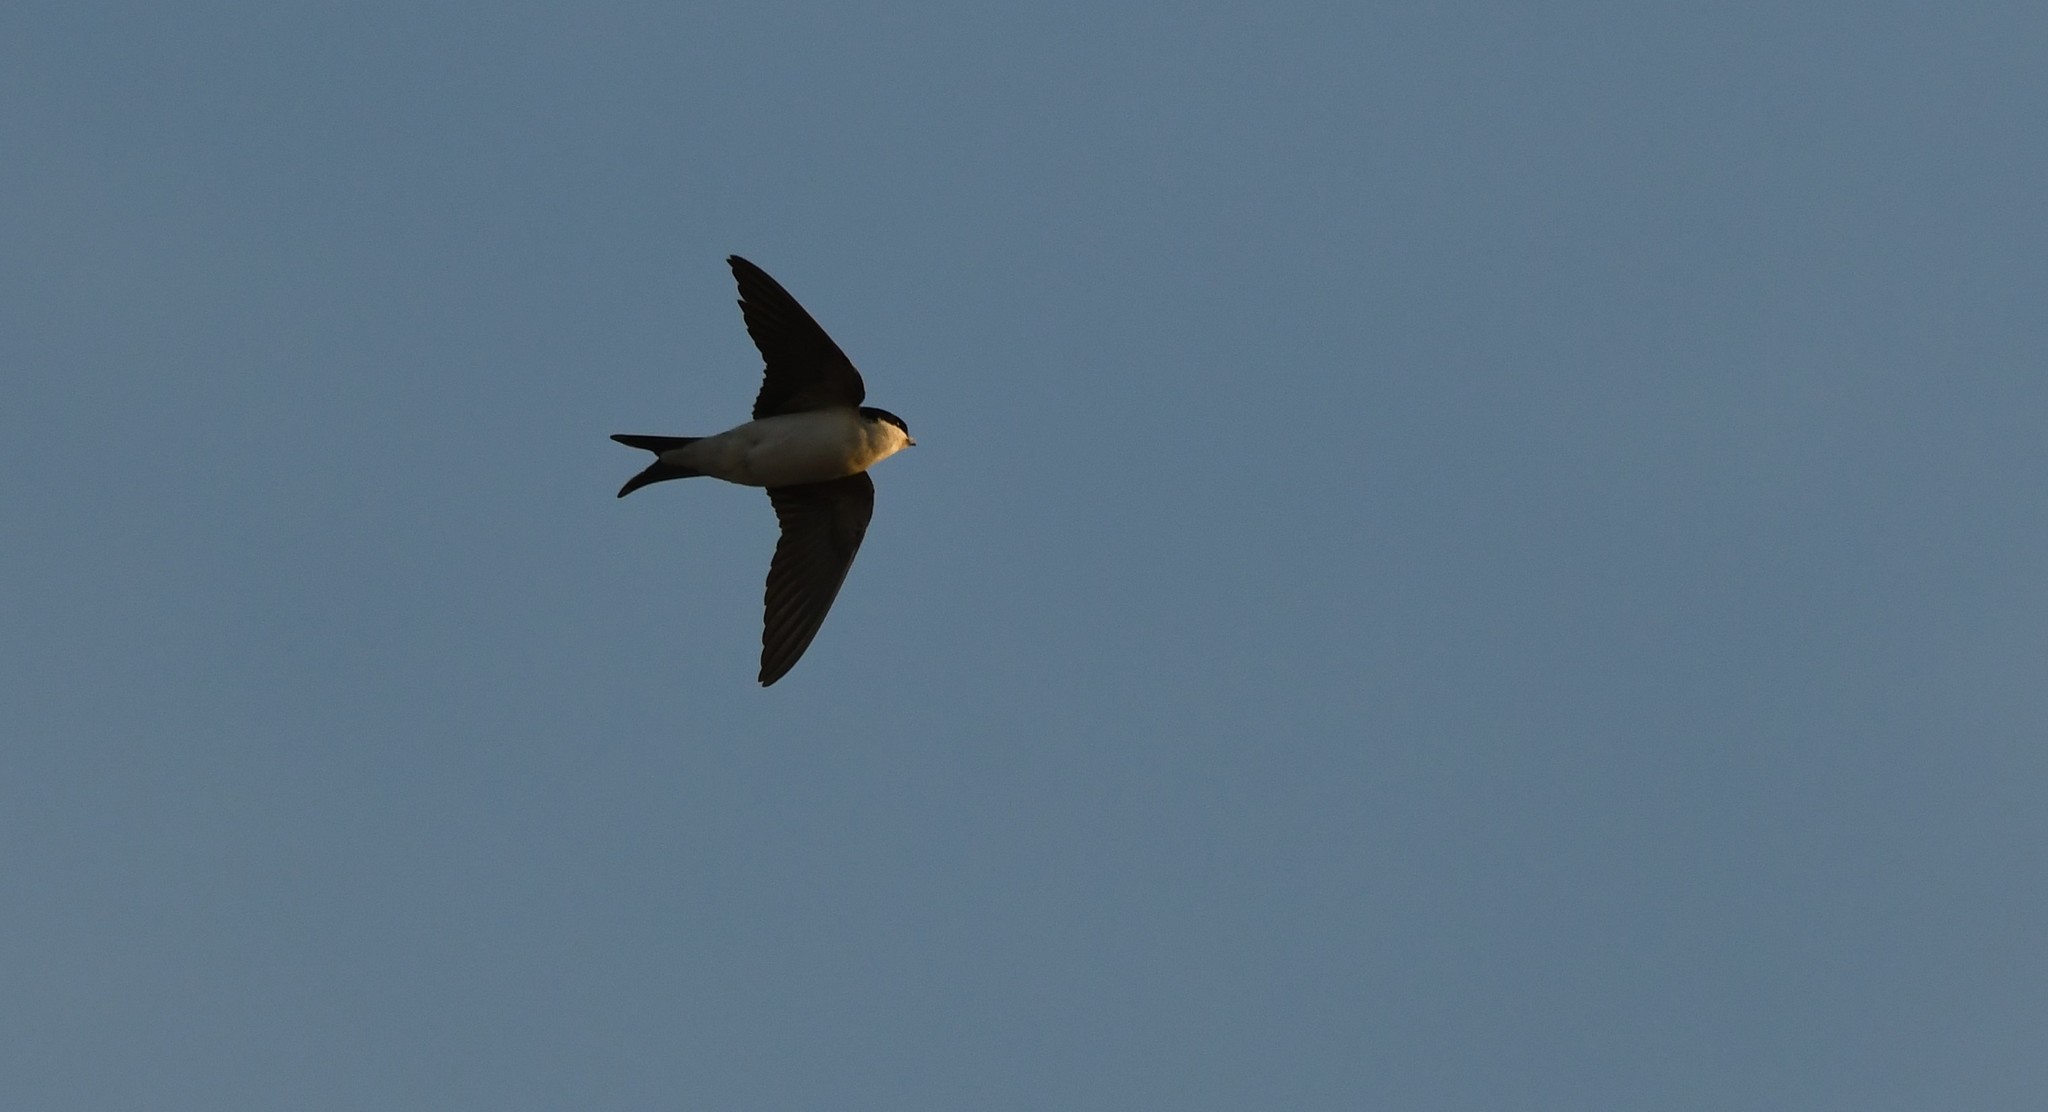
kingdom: Animalia
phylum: Chordata
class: Aves
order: Passeriformes
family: Hirundinidae
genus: Delichon
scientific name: Delichon urbicum
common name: Common house martin
